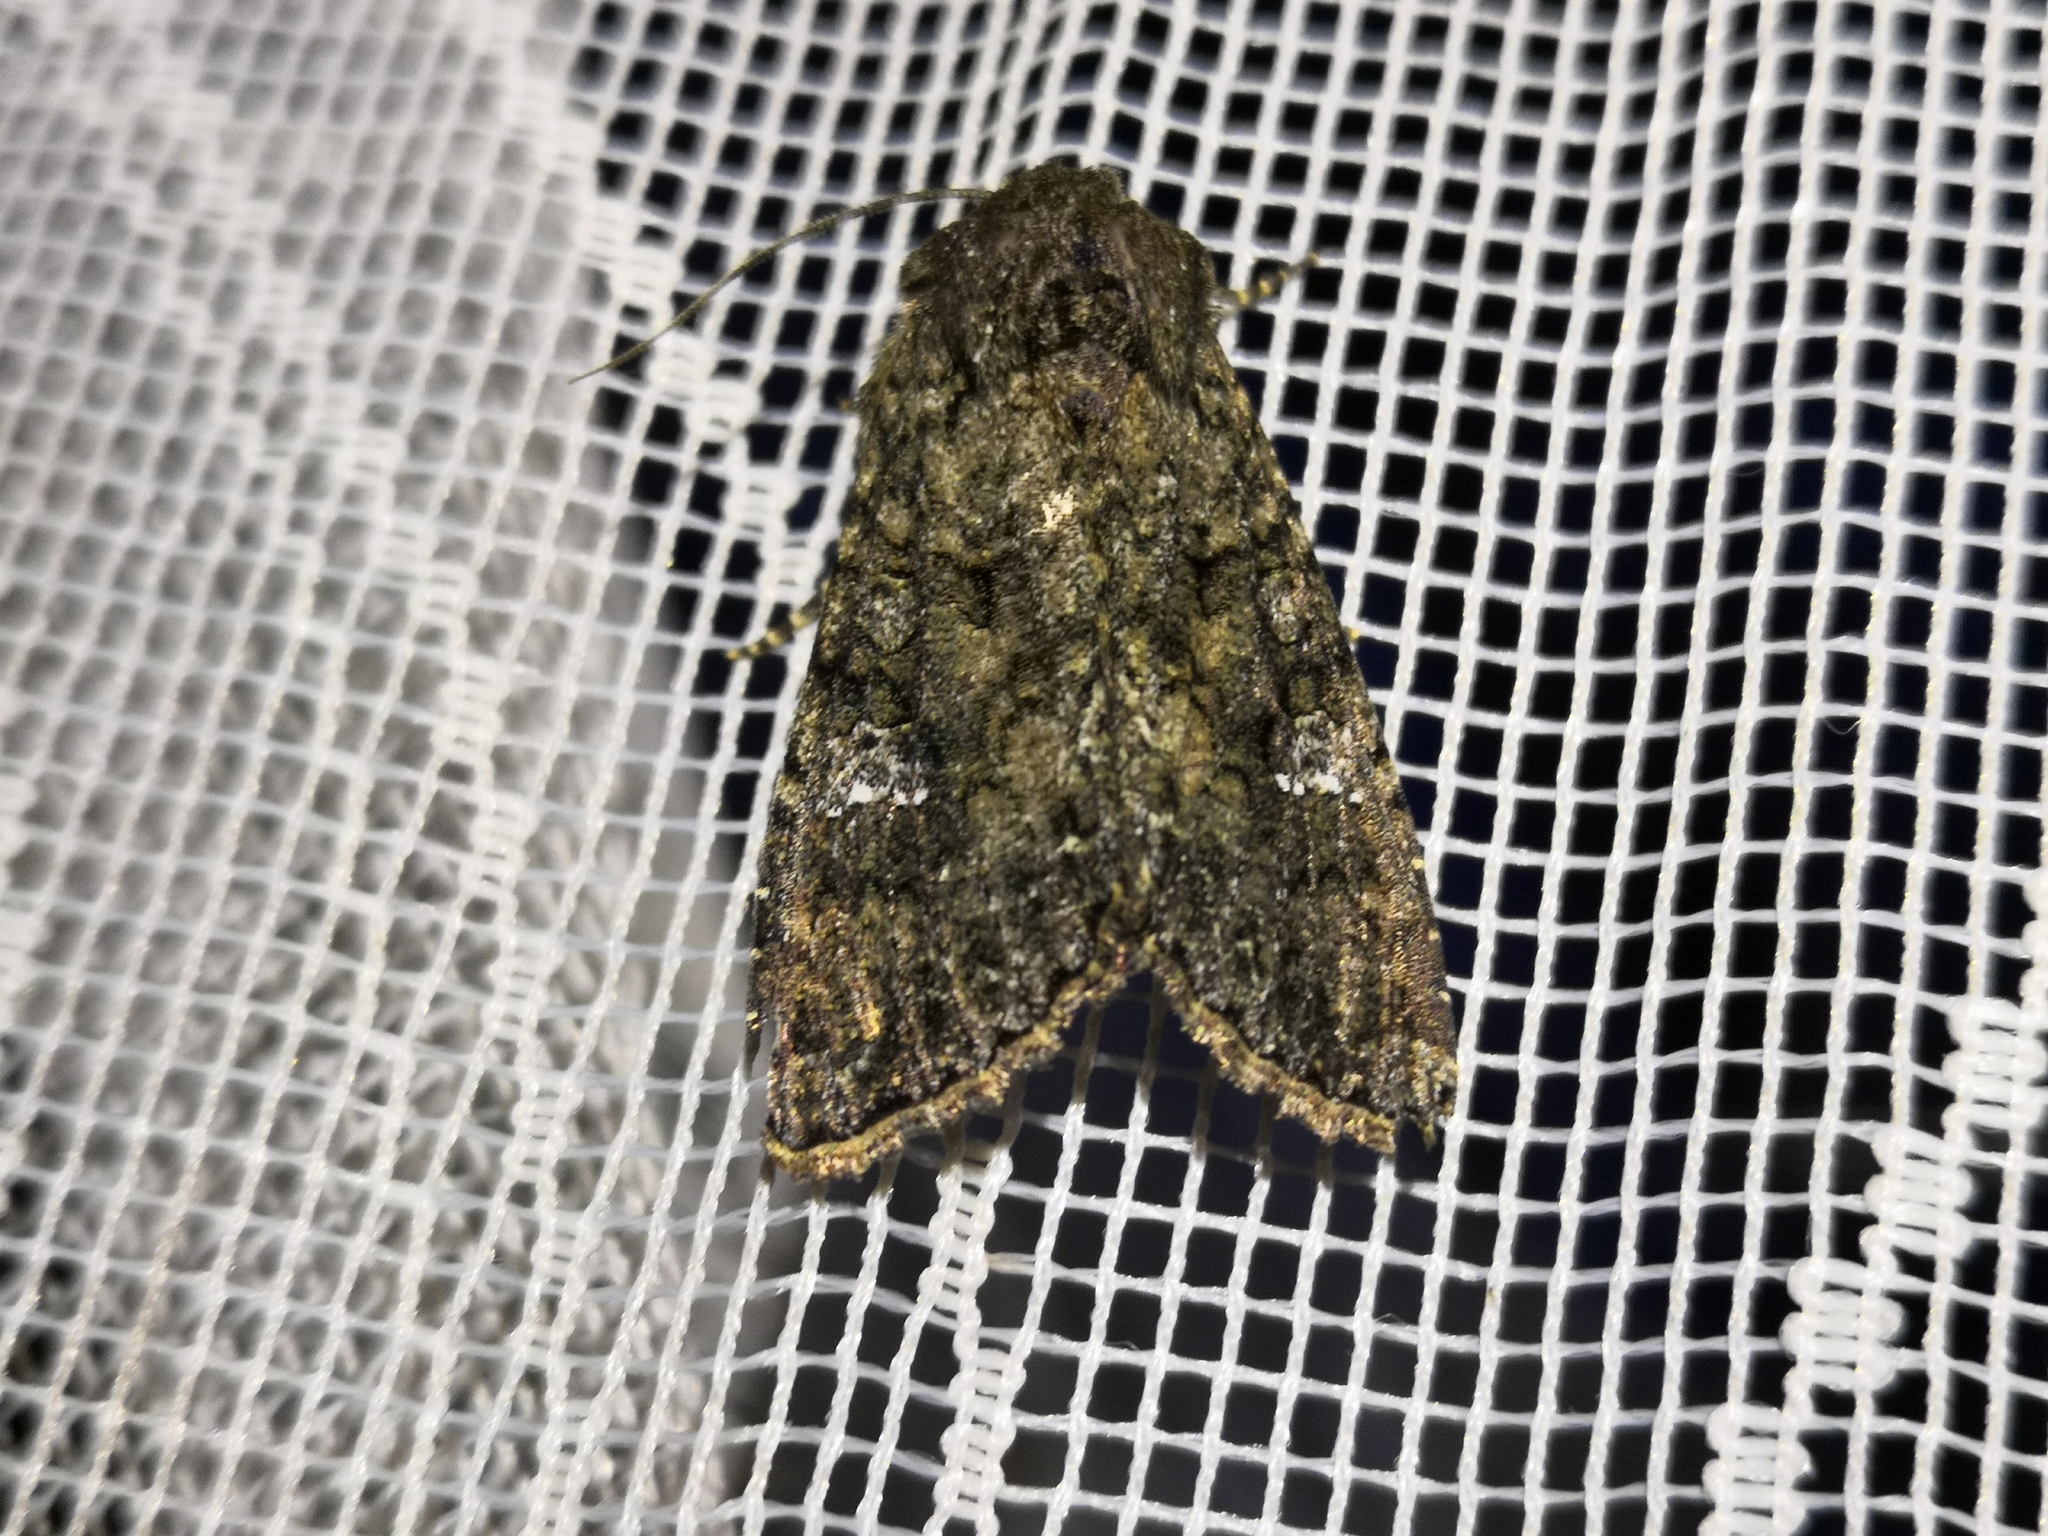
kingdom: Animalia
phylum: Arthropoda
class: Insecta
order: Lepidoptera
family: Noctuidae
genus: Mamestra
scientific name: Mamestra brassicae
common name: Cabbage moth
